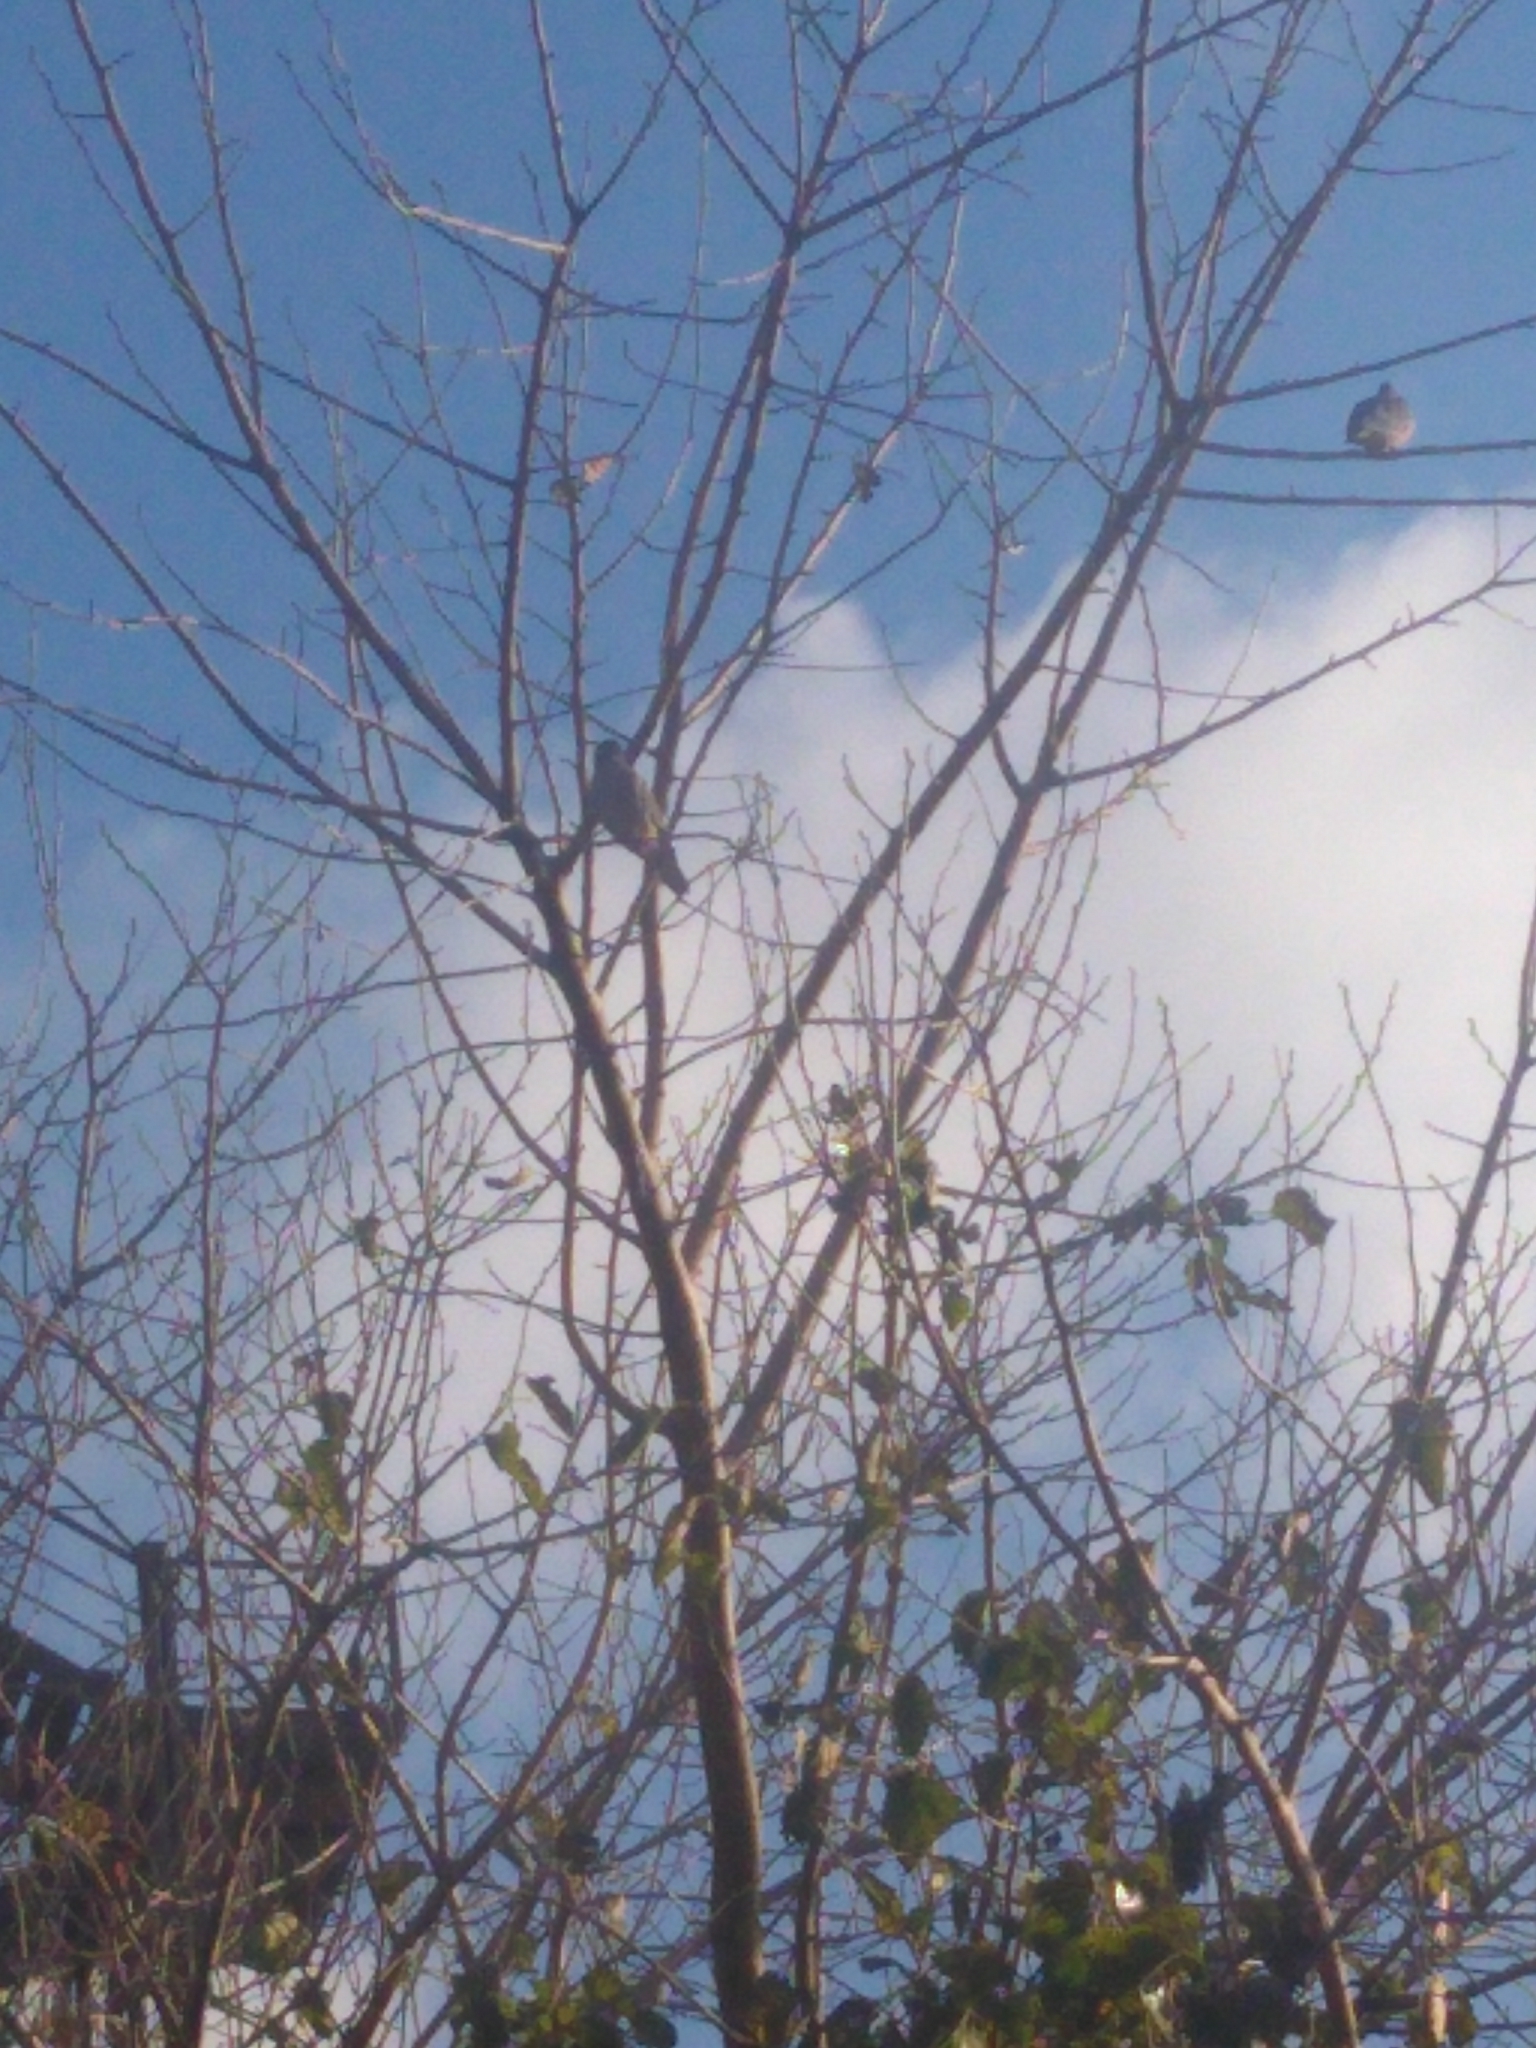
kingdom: Animalia
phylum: Chordata
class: Aves
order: Columbiformes
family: Columbidae
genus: Zenaida
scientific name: Zenaida auriculata
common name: Eared dove
